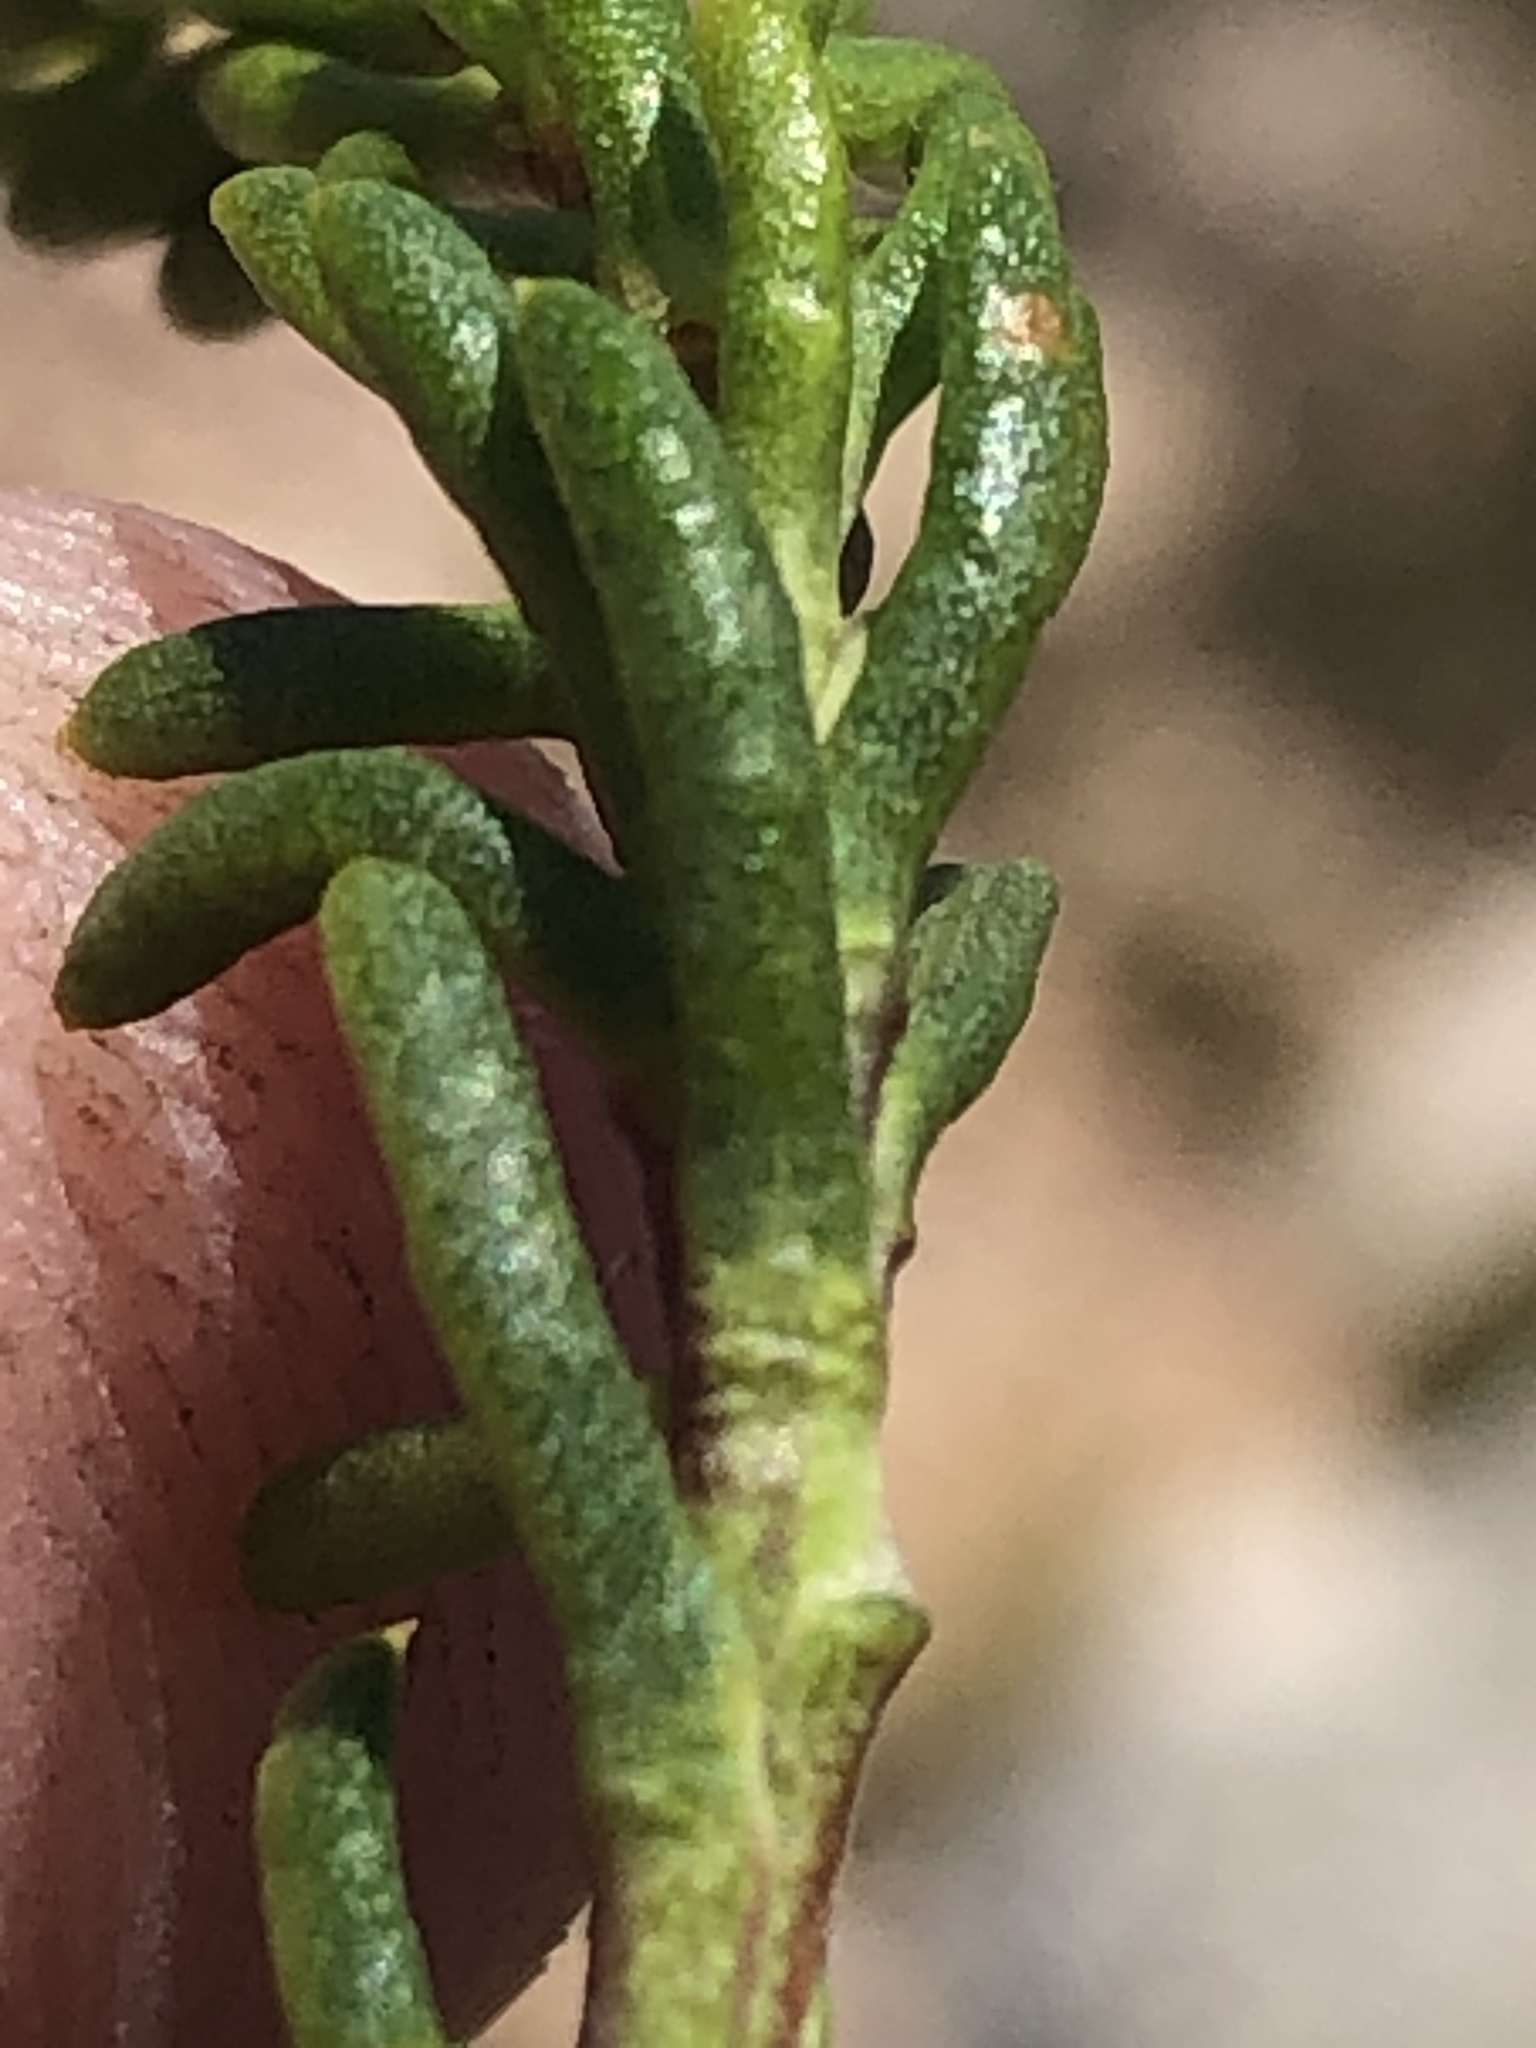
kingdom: Plantae
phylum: Tracheophyta
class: Magnoliopsida
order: Asterales
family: Asteraceae
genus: Felicia
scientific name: Felicia oleosa
